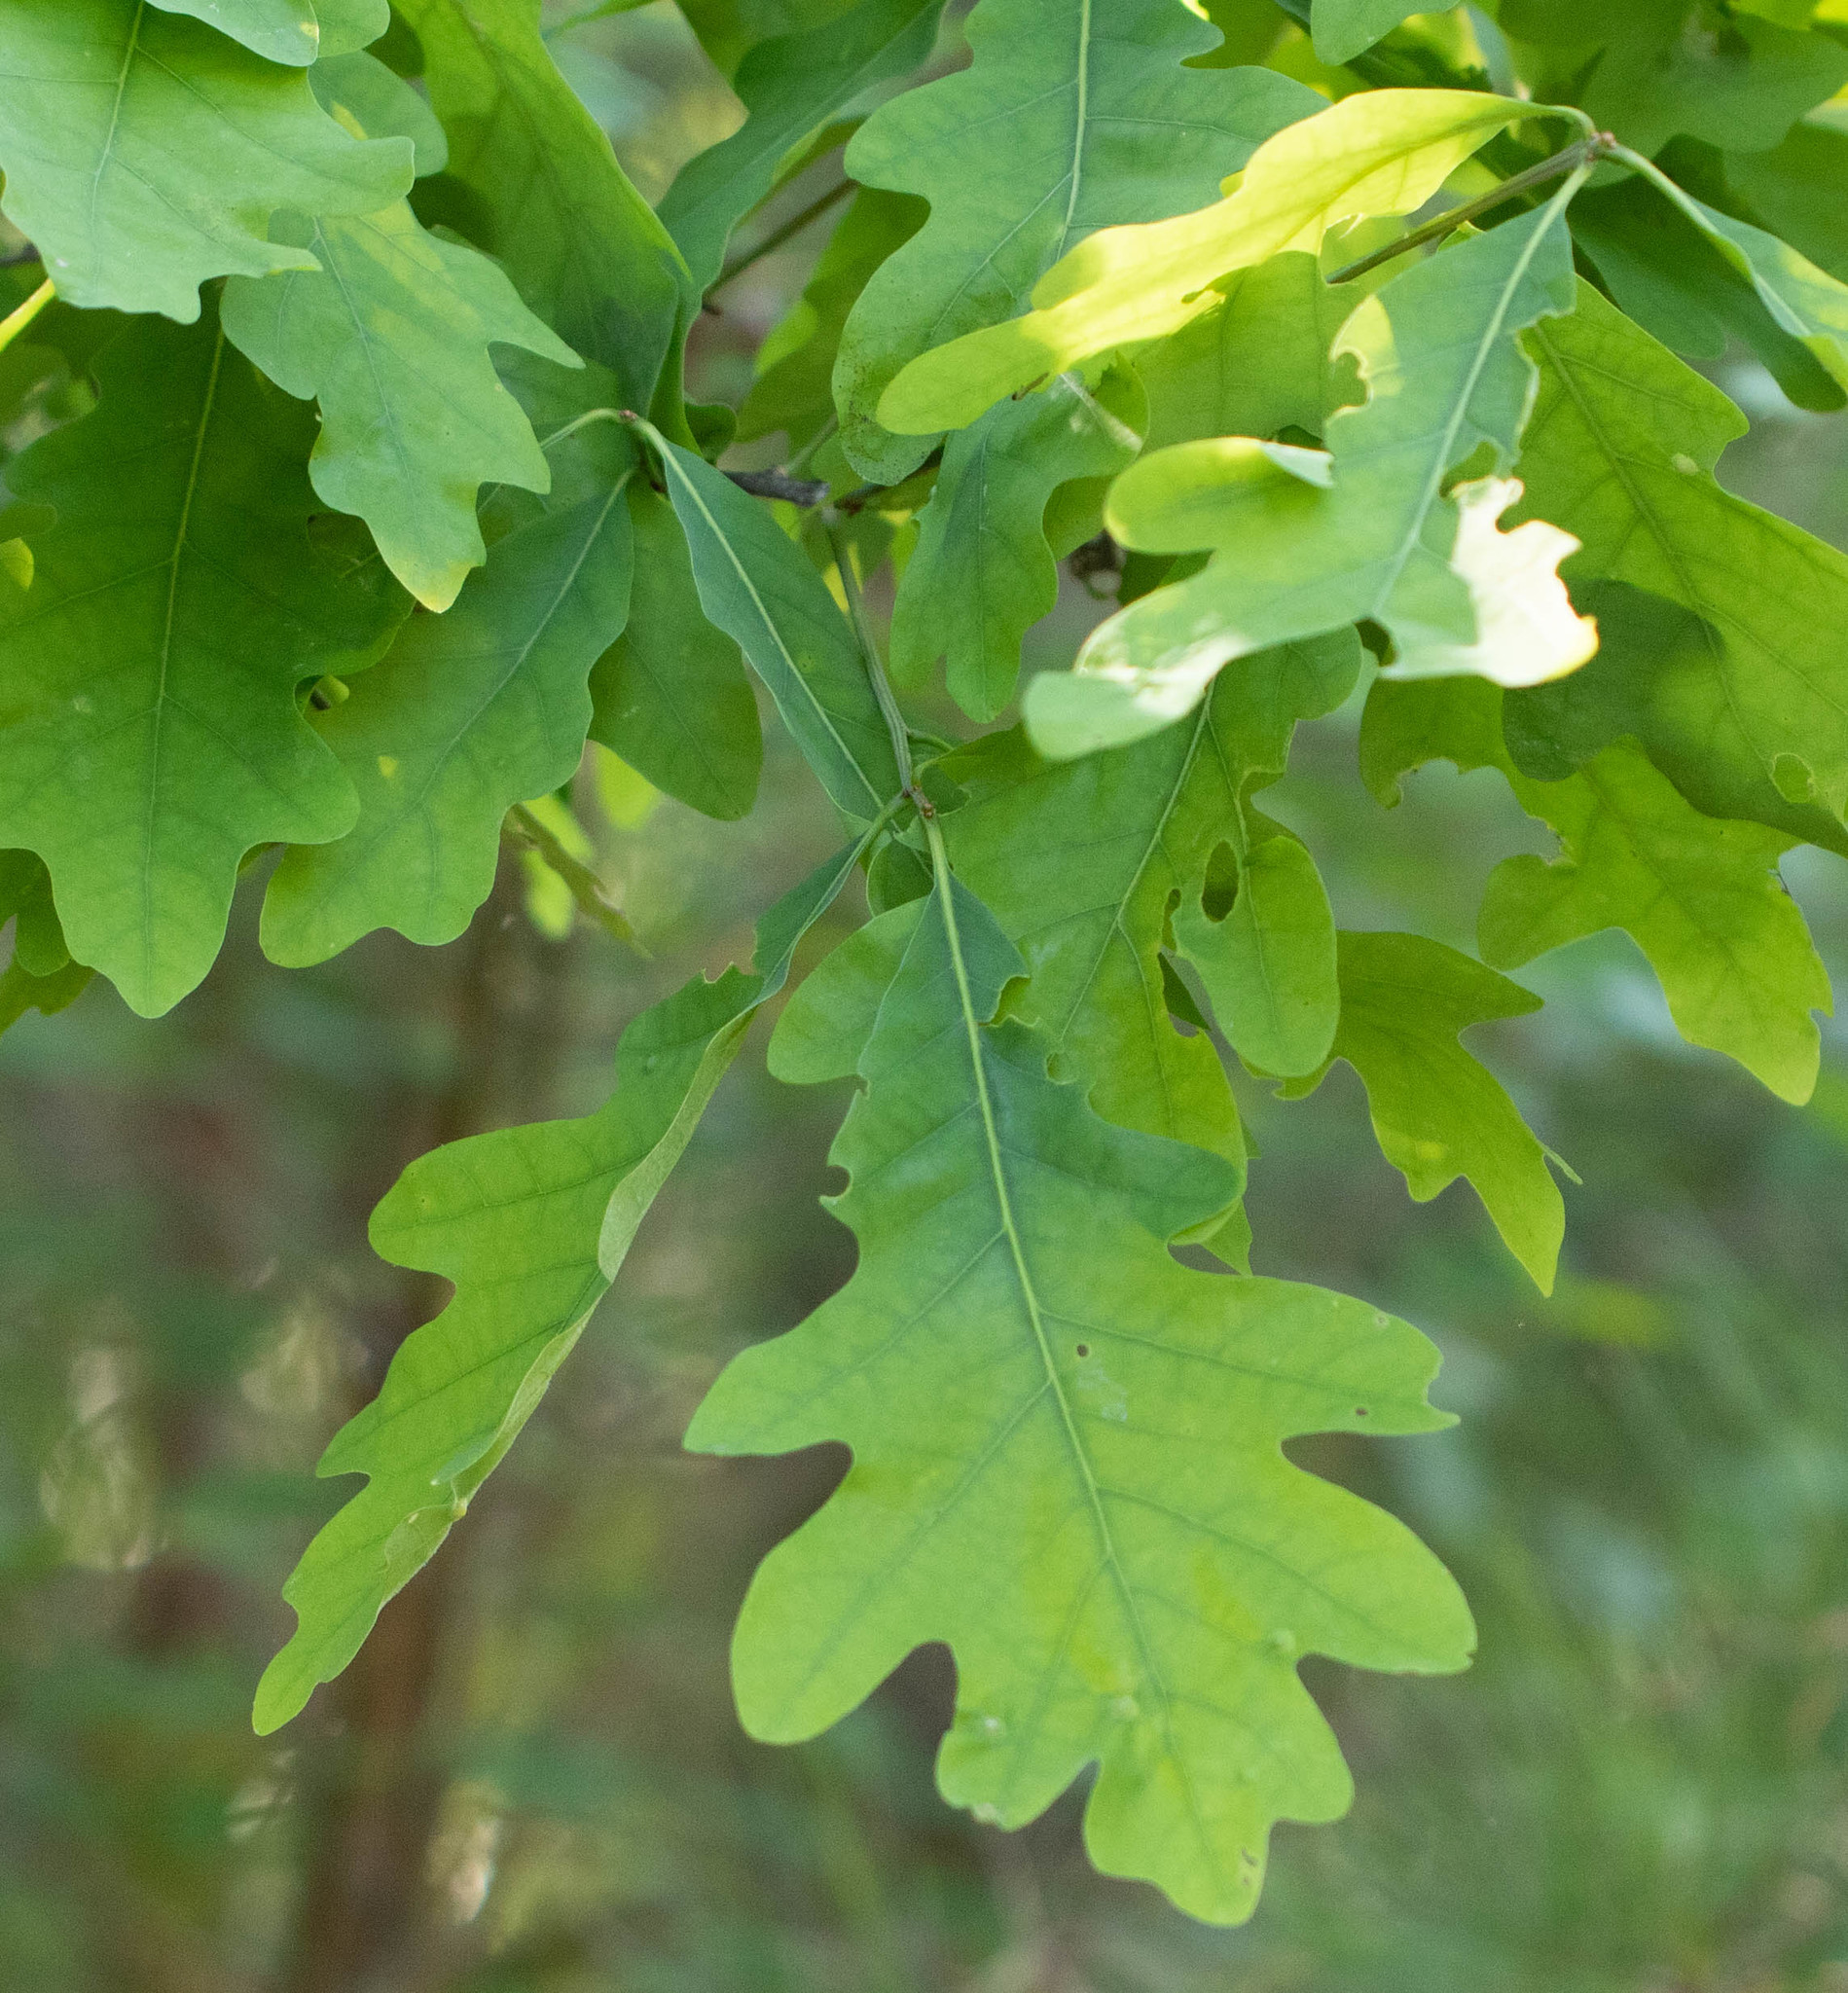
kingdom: Plantae
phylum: Tracheophyta
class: Magnoliopsida
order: Fagales
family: Fagaceae
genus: Quercus
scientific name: Quercus alba
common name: White oak
